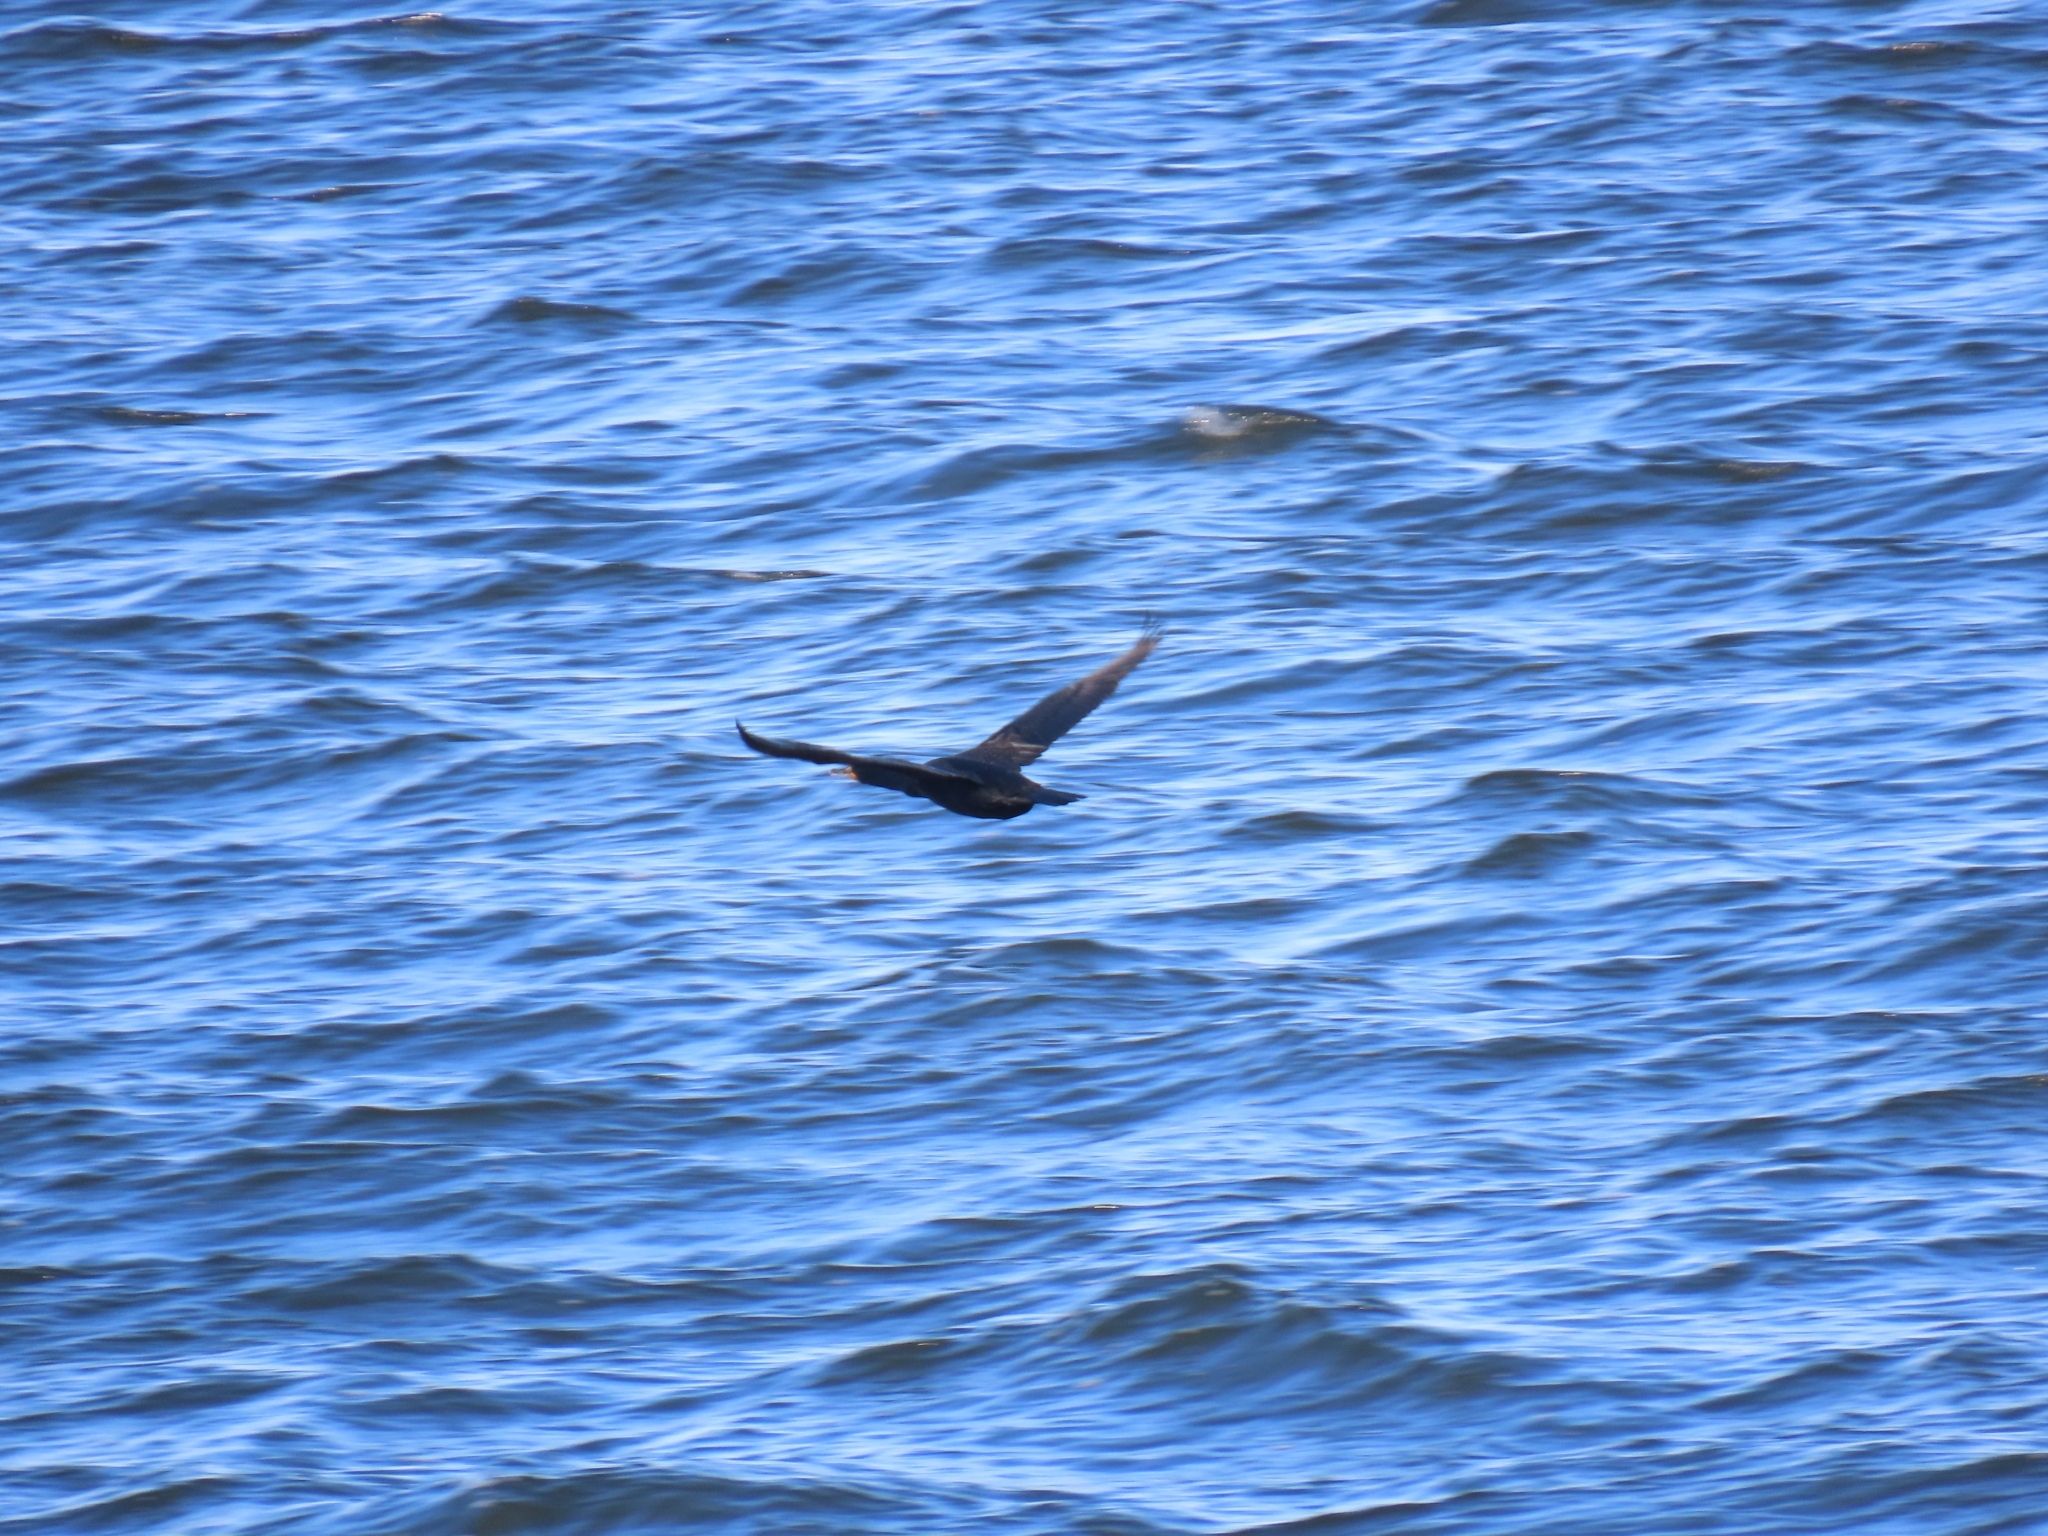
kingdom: Animalia
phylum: Chordata
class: Aves
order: Suliformes
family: Phalacrocoracidae
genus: Phalacrocorax
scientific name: Phalacrocorax auritus
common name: Double-crested cormorant
